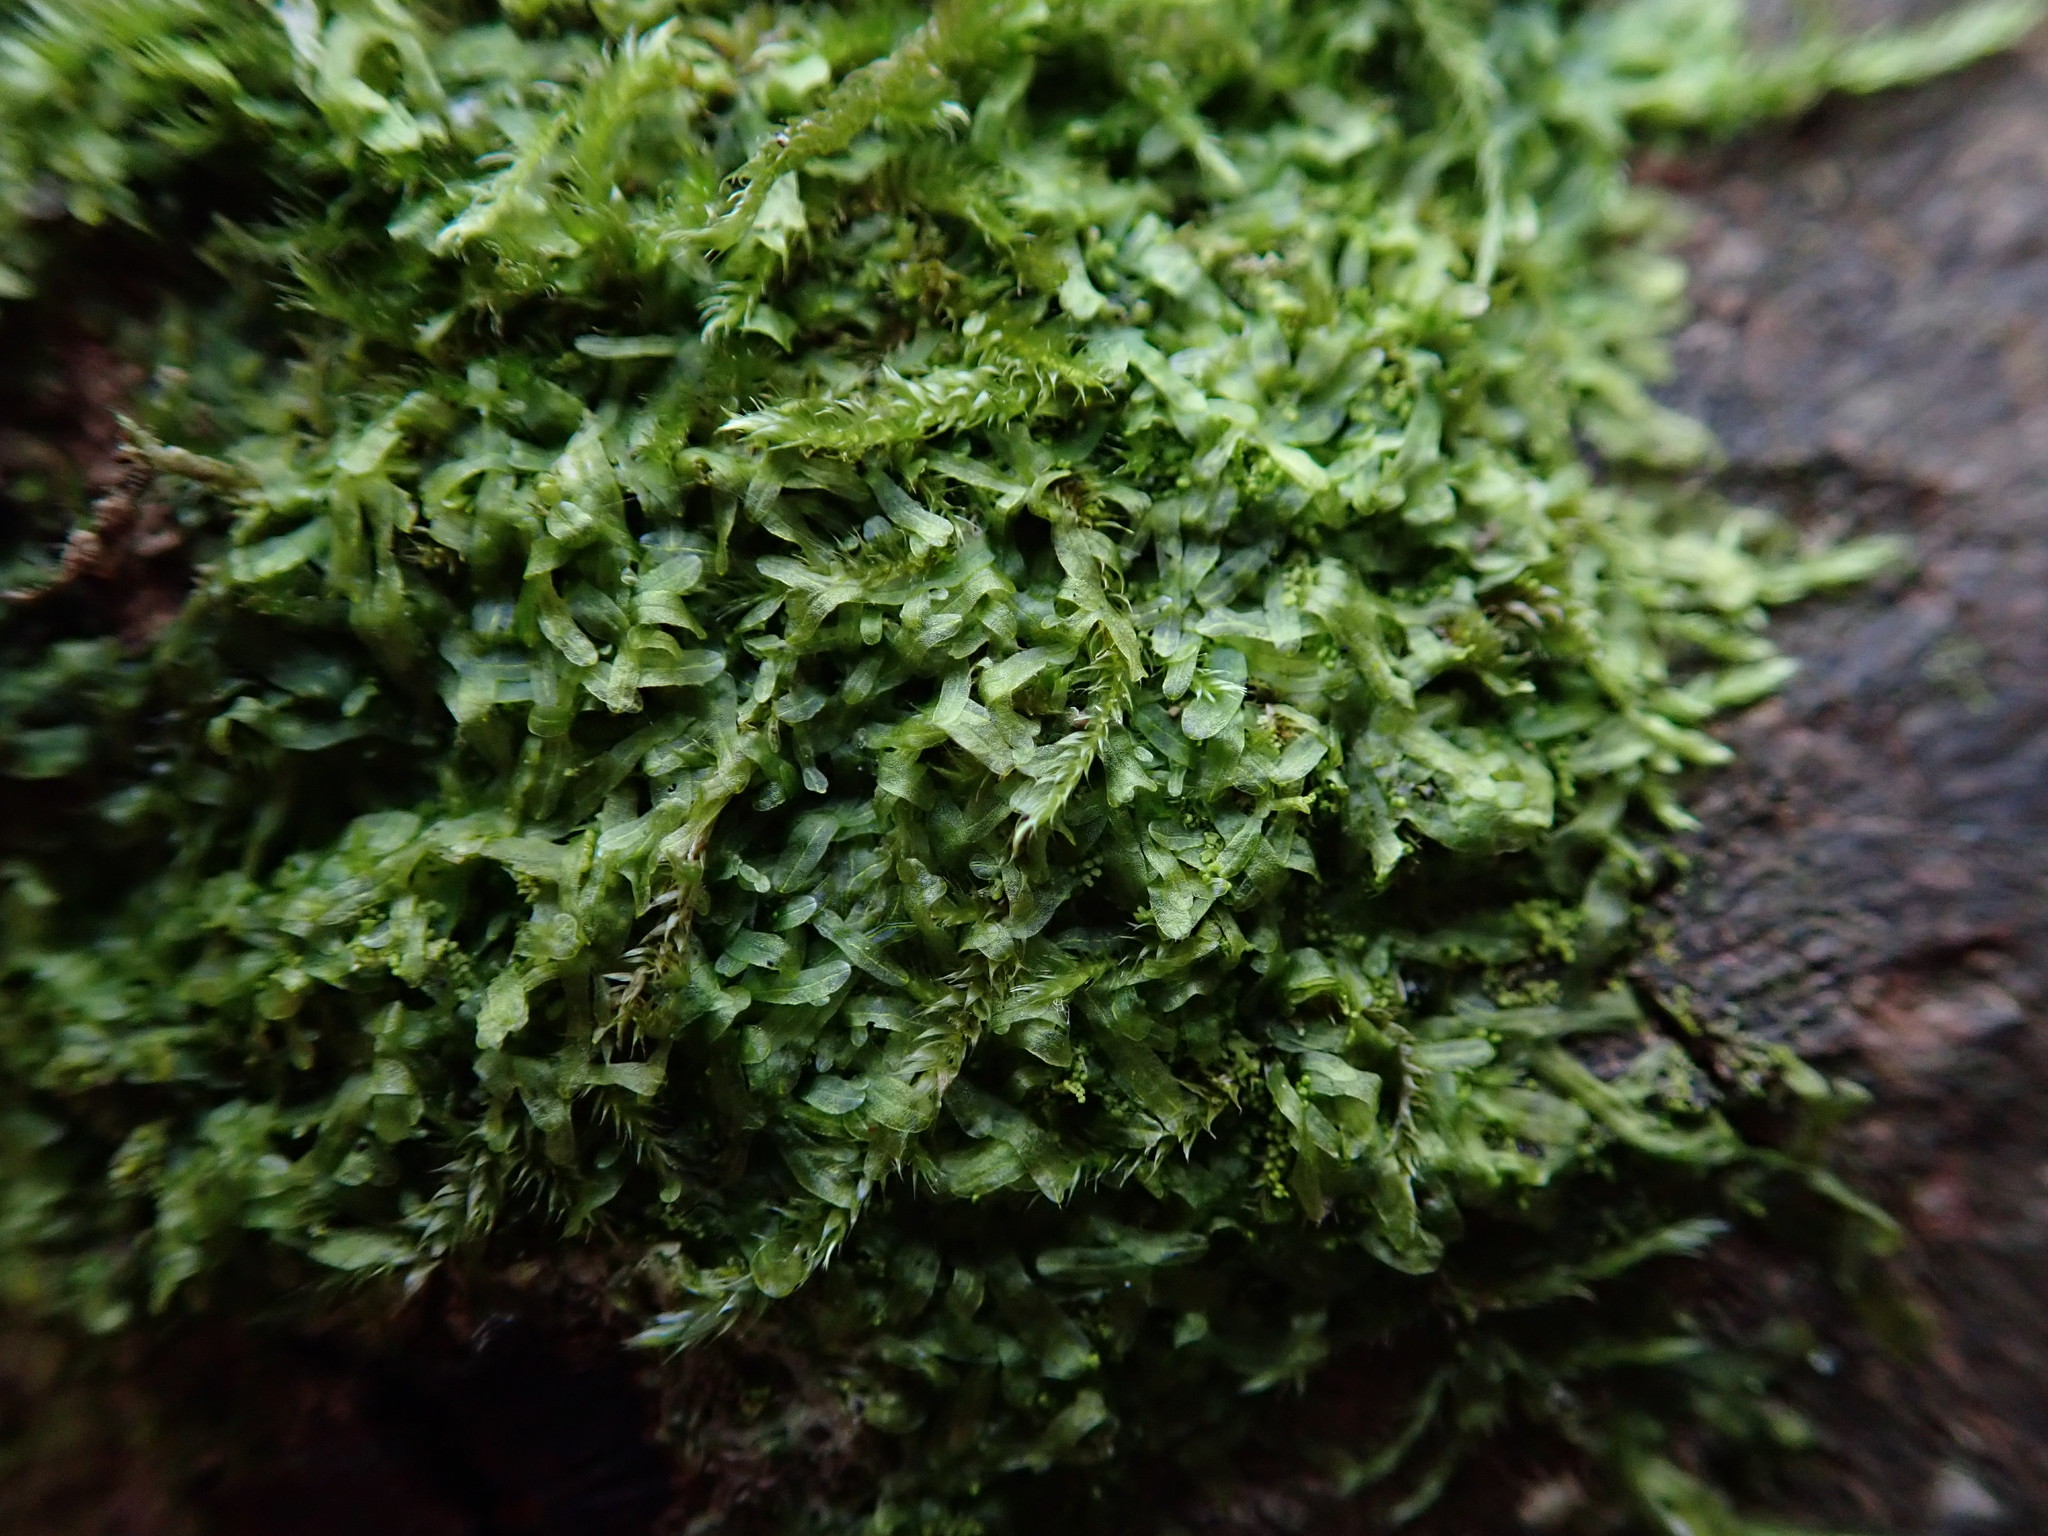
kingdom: Plantae
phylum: Marchantiophyta
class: Jungermanniopsida
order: Metzgeriales
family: Metzgeriaceae
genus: Metzgeria
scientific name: Metzgeria furcata
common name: Forked veilwort
